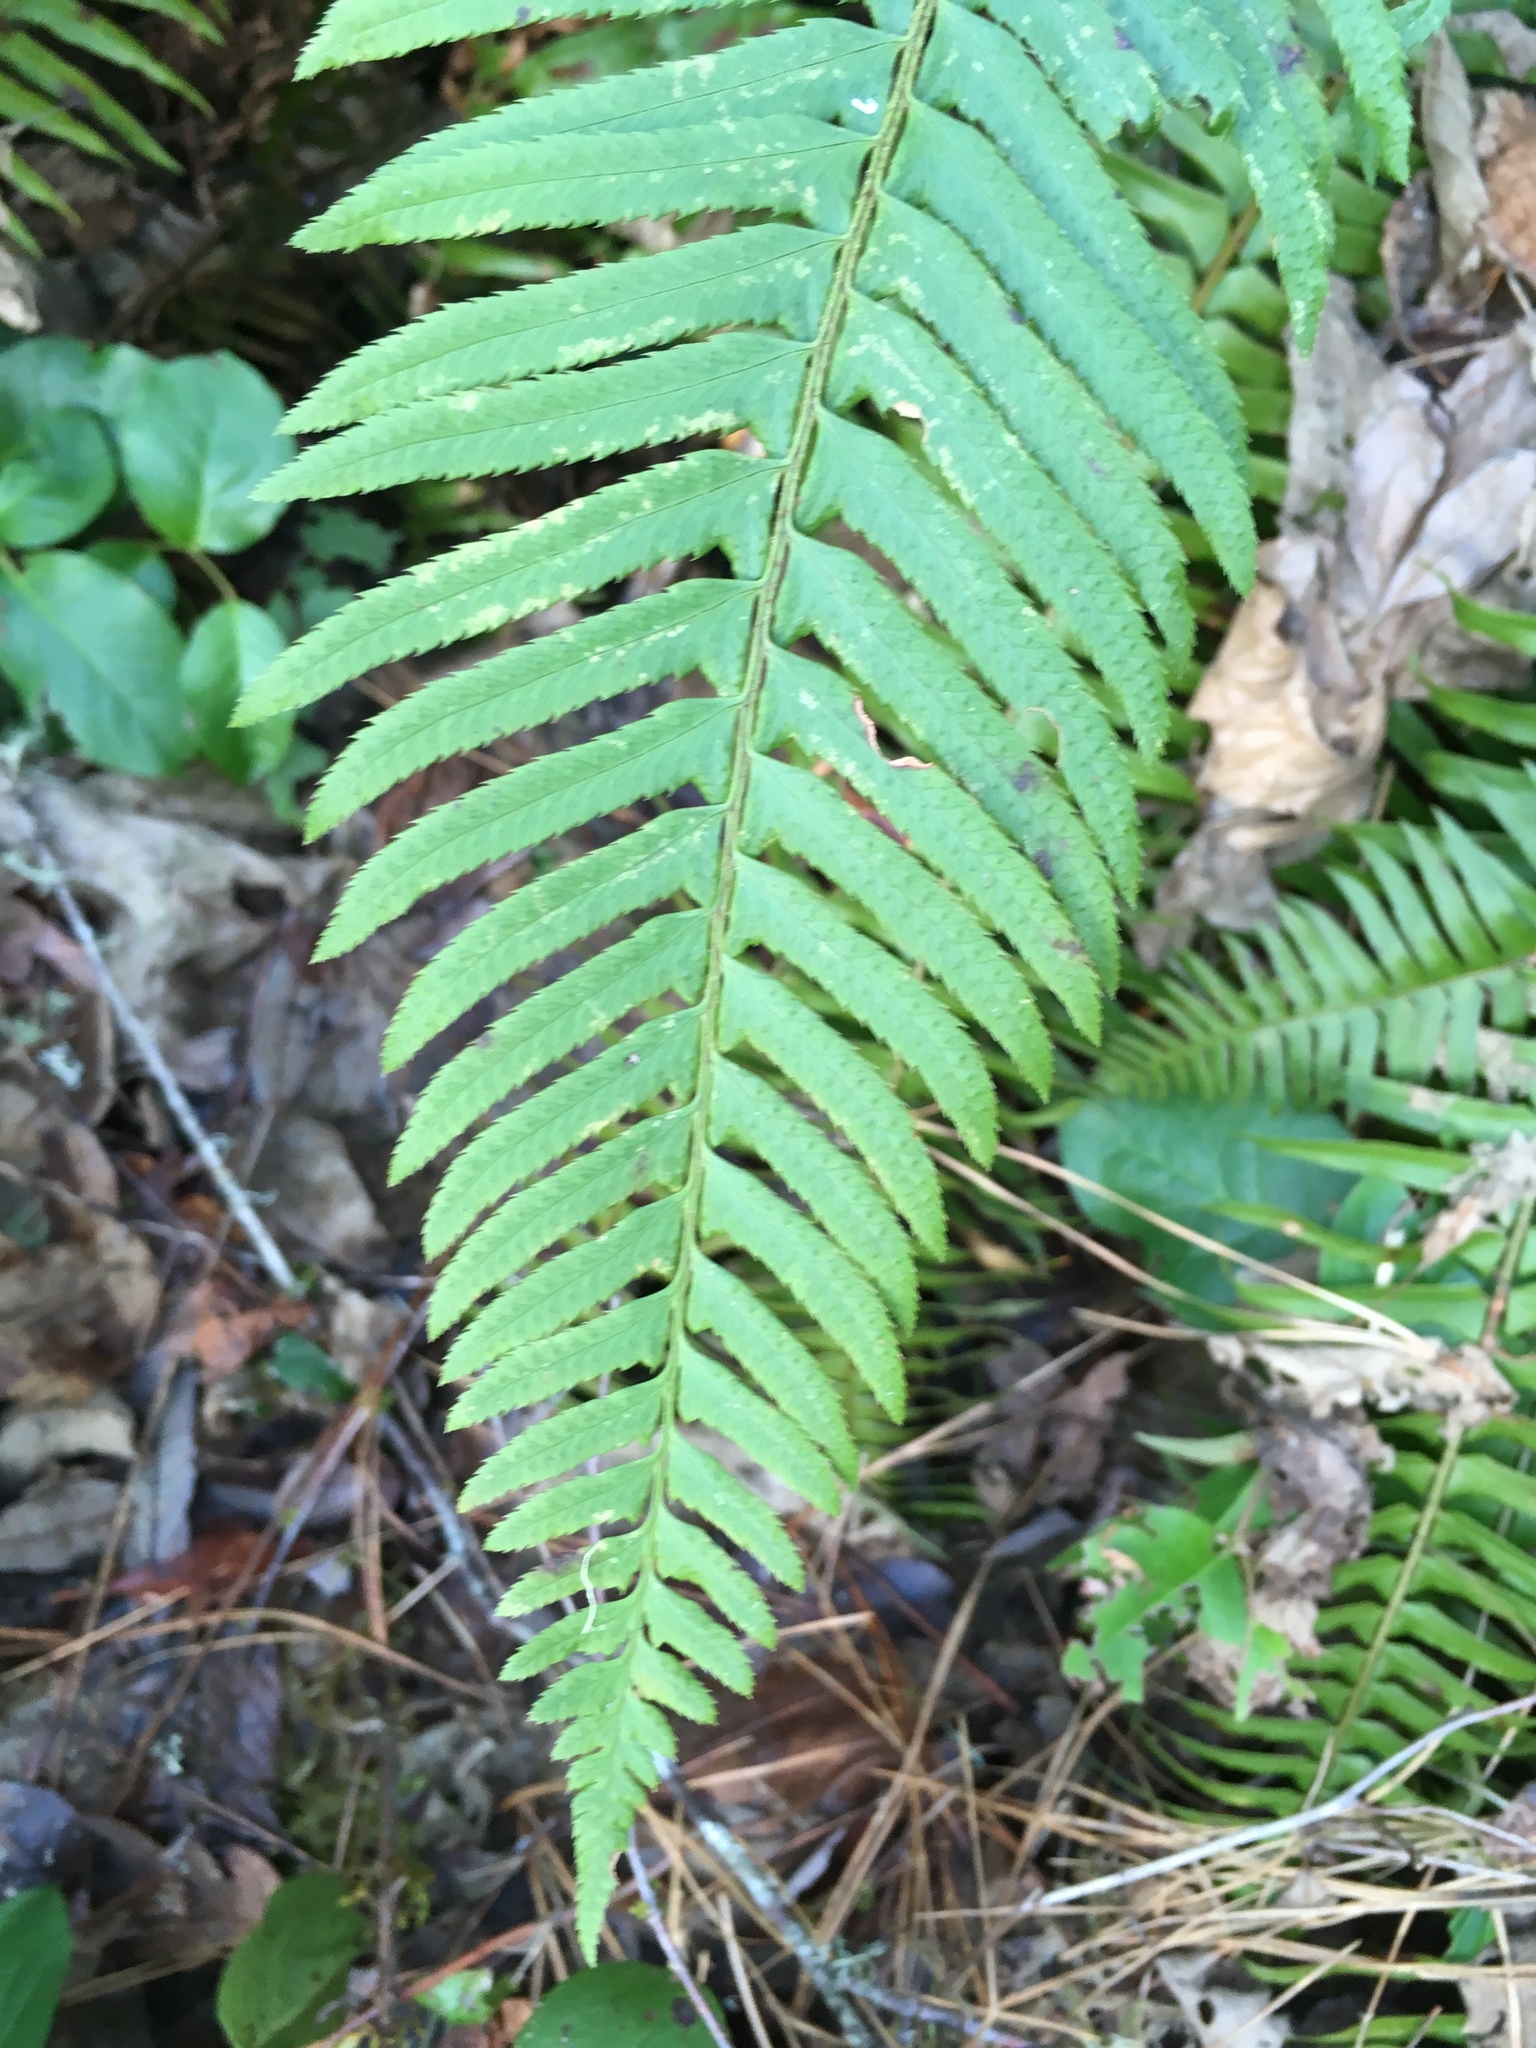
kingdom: Plantae
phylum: Tracheophyta
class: Polypodiopsida
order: Polypodiales
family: Dryopteridaceae
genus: Polystichum
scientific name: Polystichum munitum
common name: Western sword-fern
